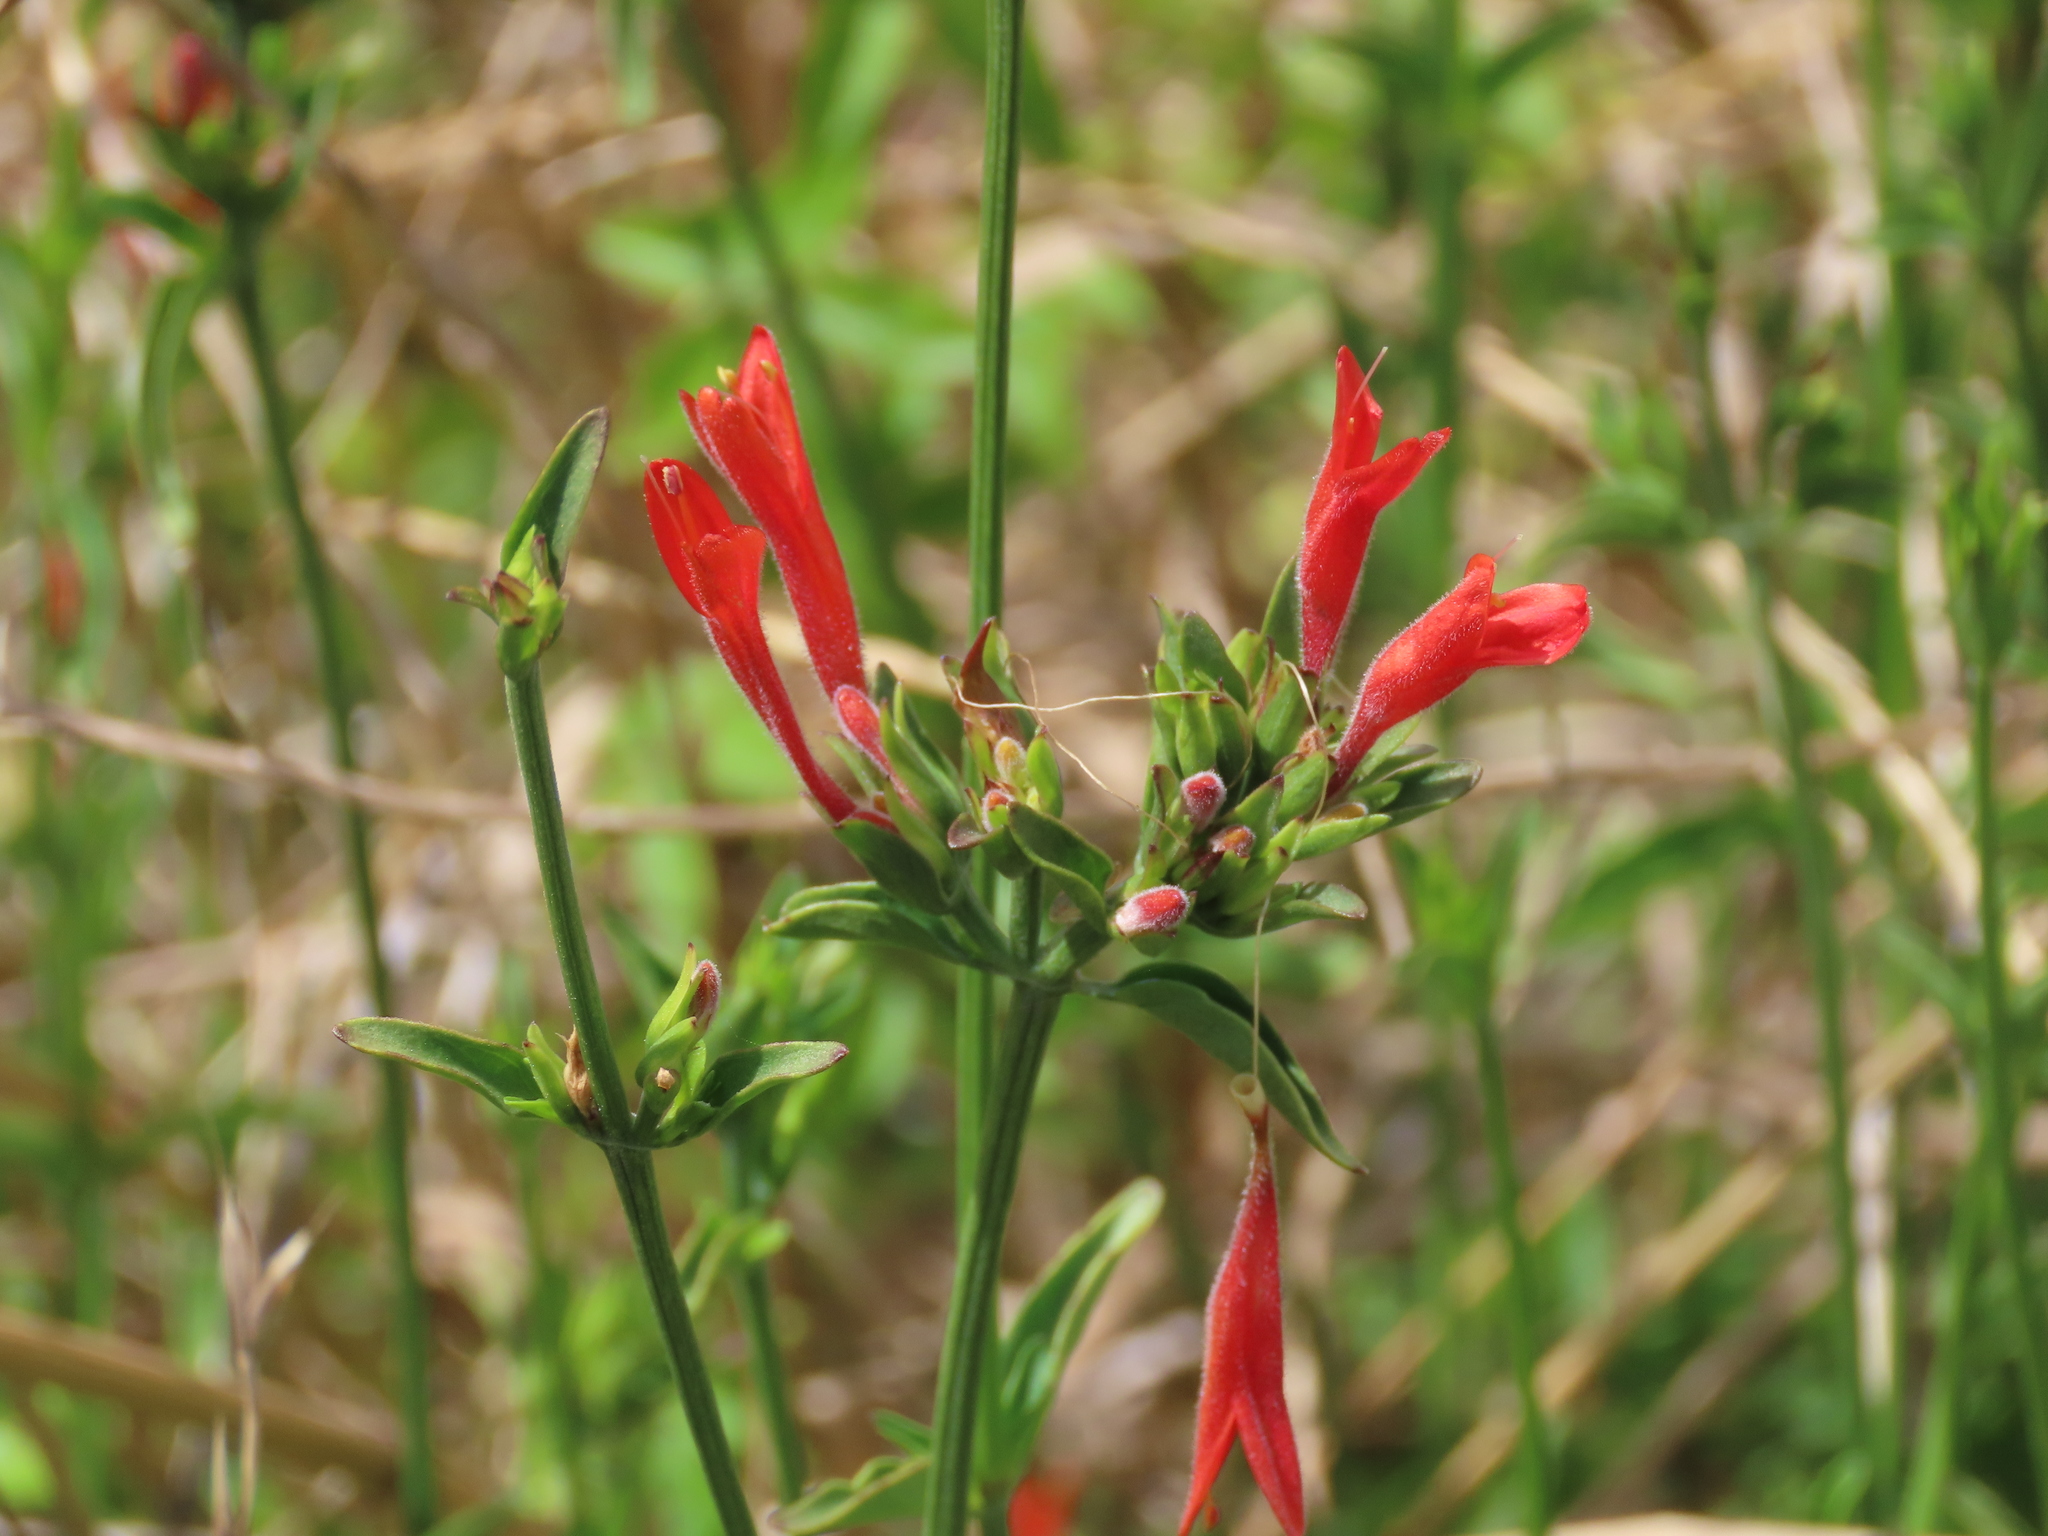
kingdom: Plantae
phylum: Tracheophyta
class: Magnoliopsida
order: Lamiales
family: Acanthaceae
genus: Dicliptera
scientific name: Dicliptera squarrosa
